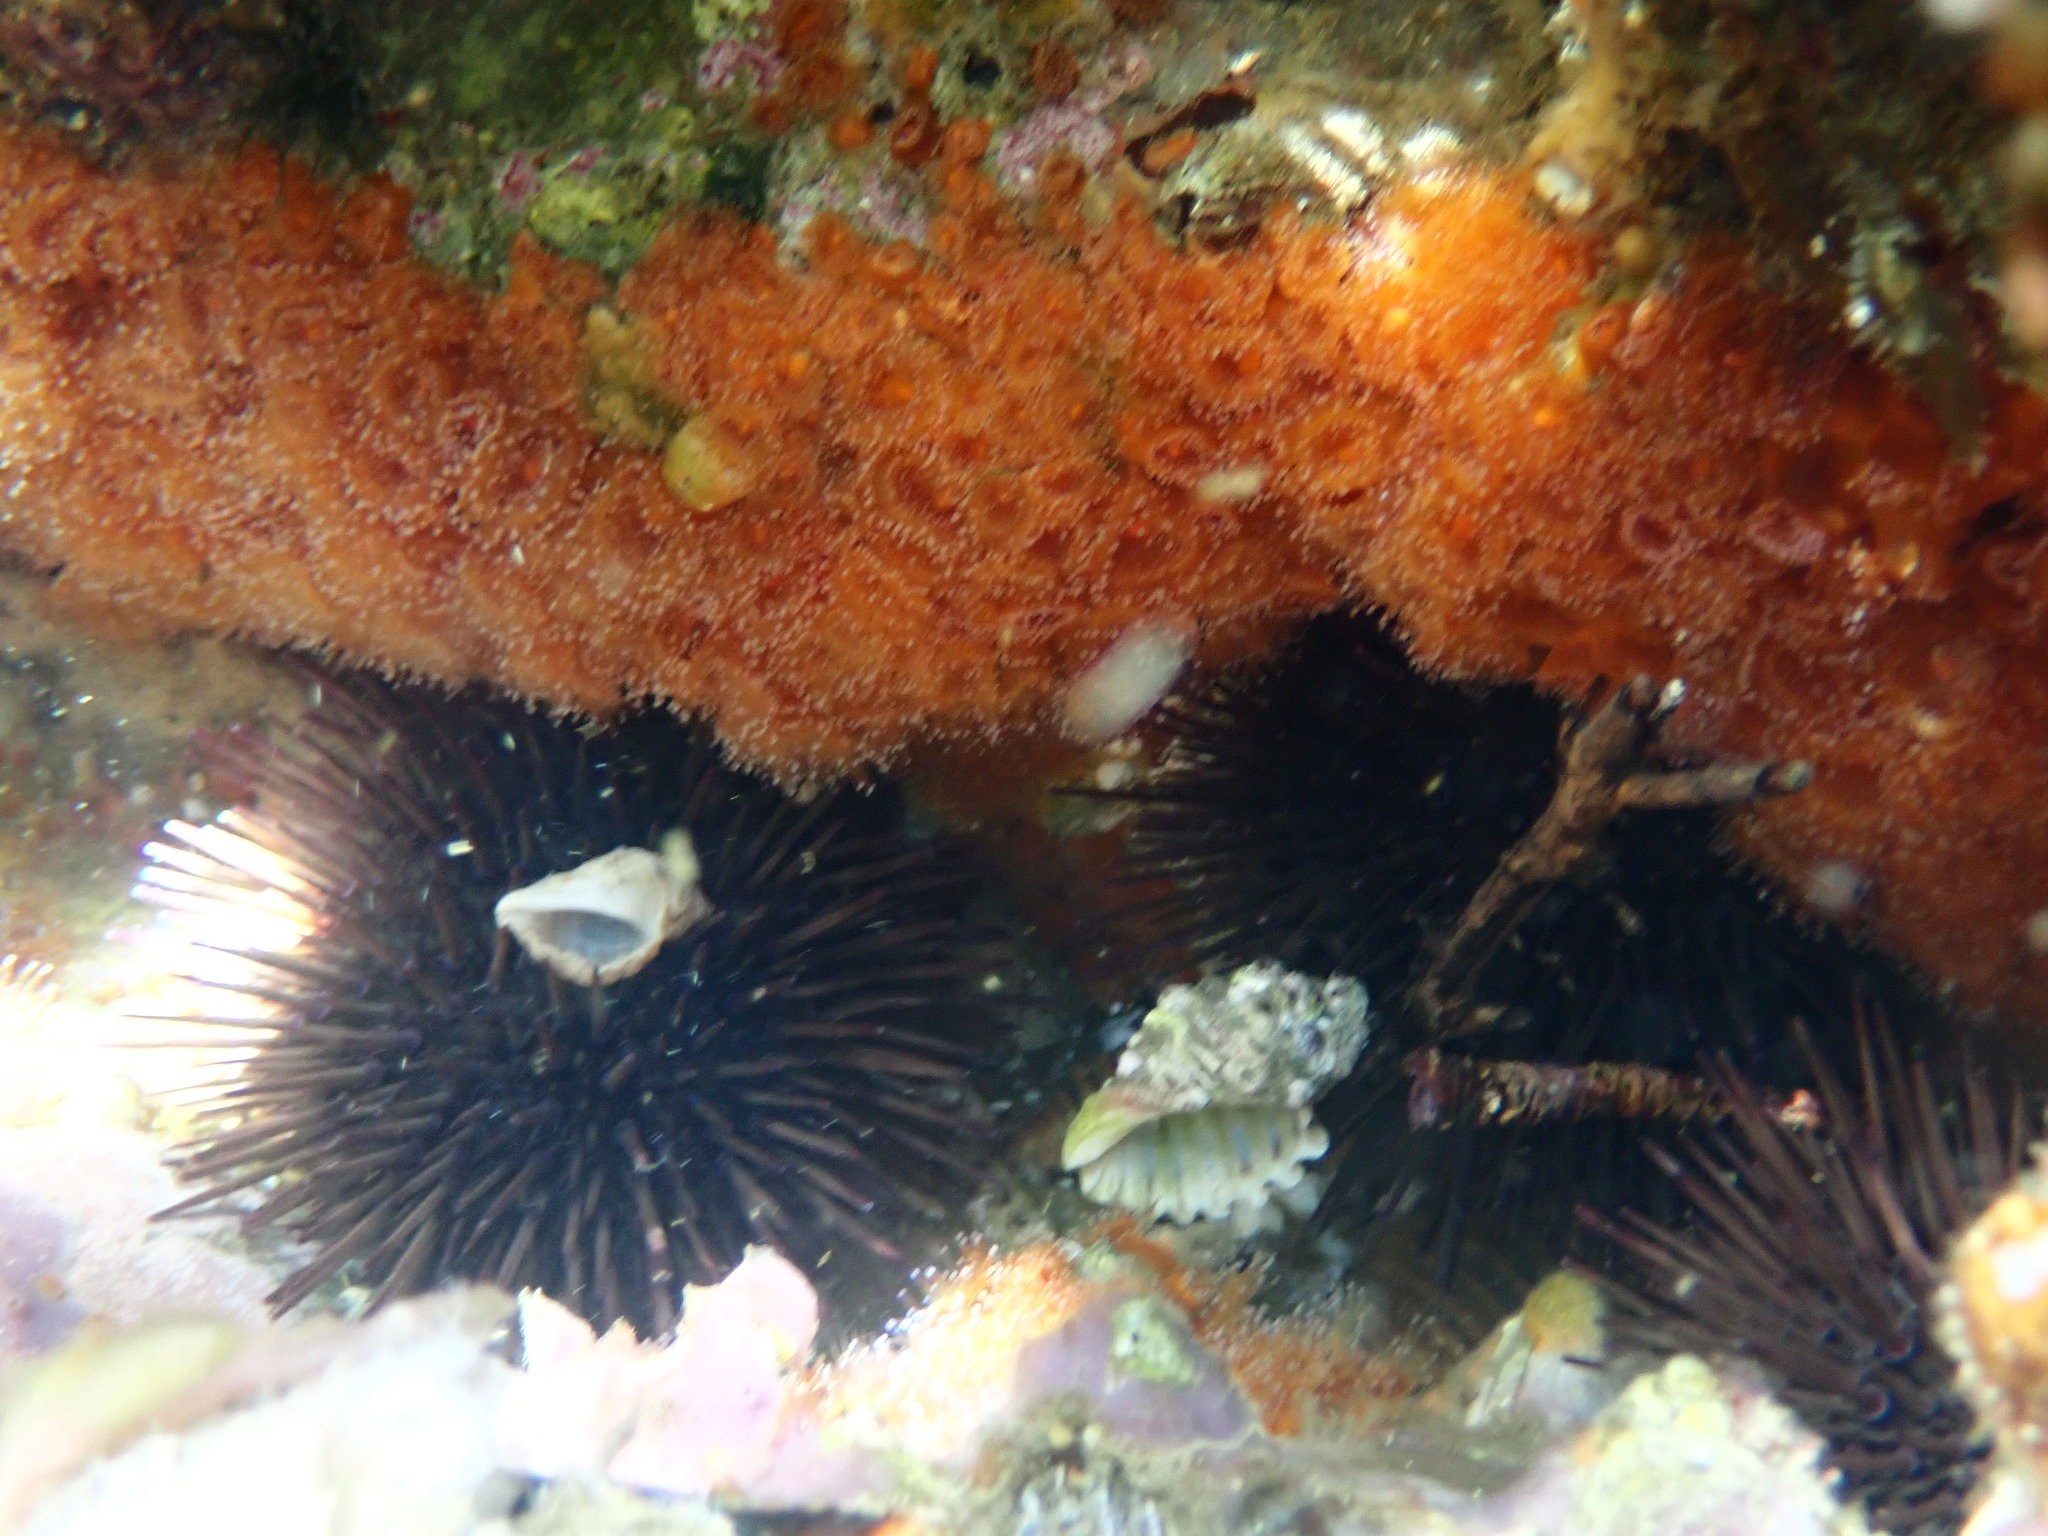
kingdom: Animalia
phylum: Echinodermata
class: Echinoidea
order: Camarodonta
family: Echinometridae
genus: Heliocidaris
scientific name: Heliocidaris erythrogramma
